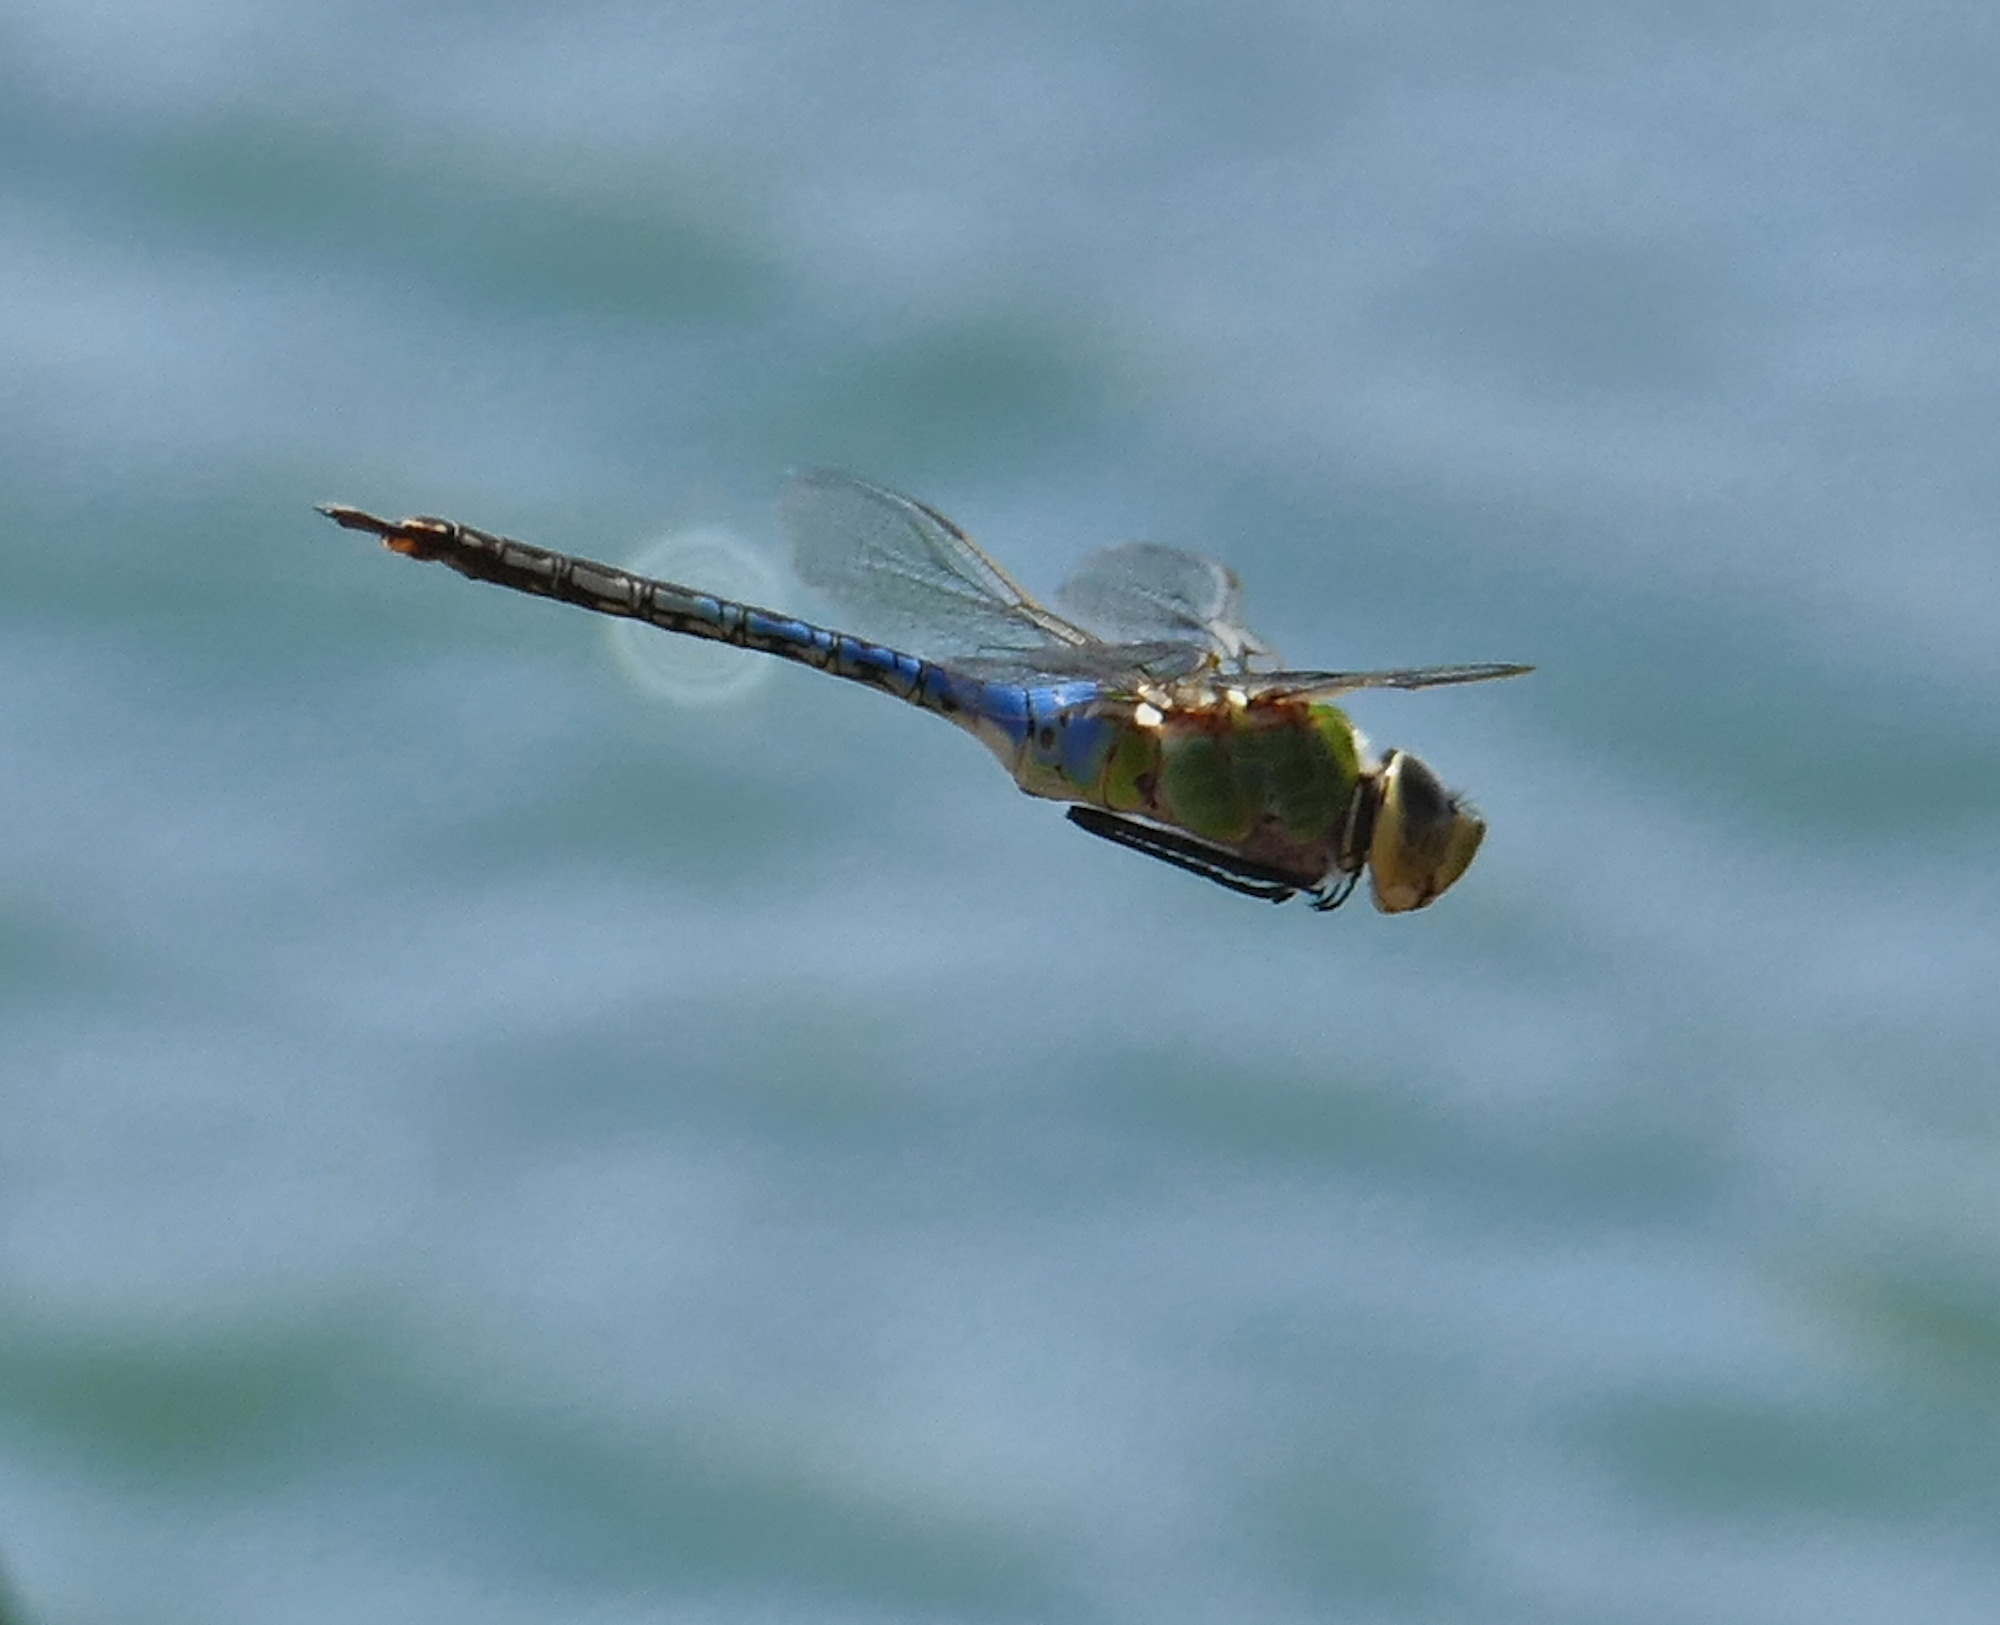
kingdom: Animalia
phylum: Arthropoda
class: Insecta
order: Odonata
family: Aeshnidae
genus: Anax
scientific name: Anax junius
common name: Common green darner
